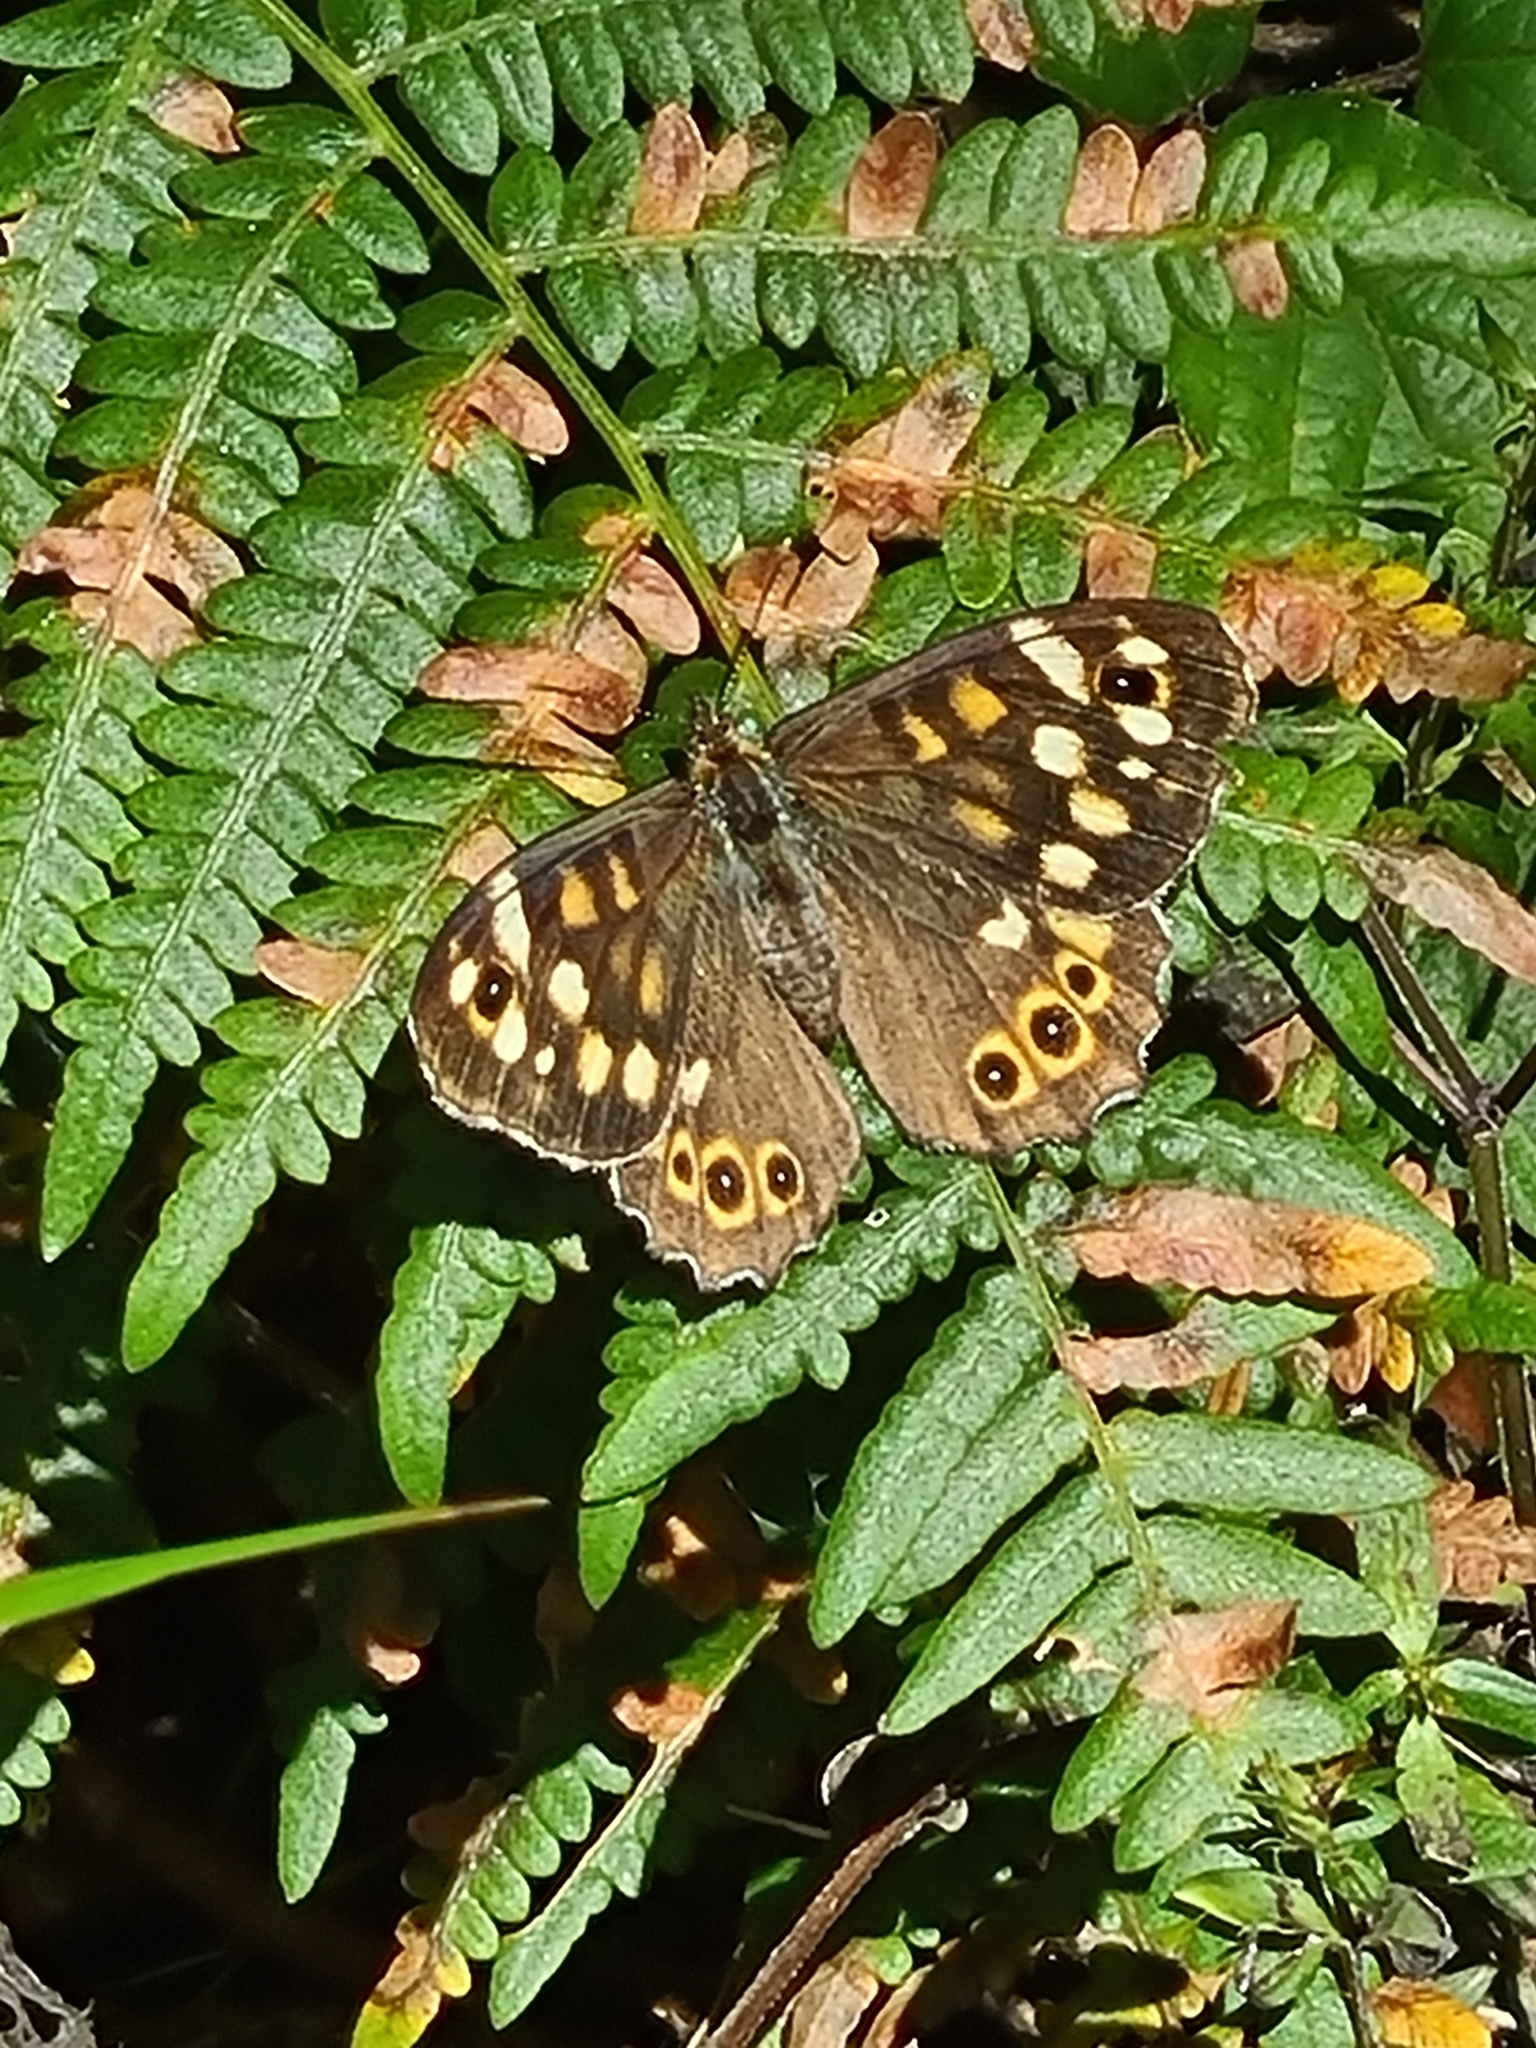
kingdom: Animalia
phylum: Arthropoda
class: Insecta
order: Lepidoptera
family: Nymphalidae
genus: Pararge
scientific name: Pararge aegeria
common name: Speckled wood
